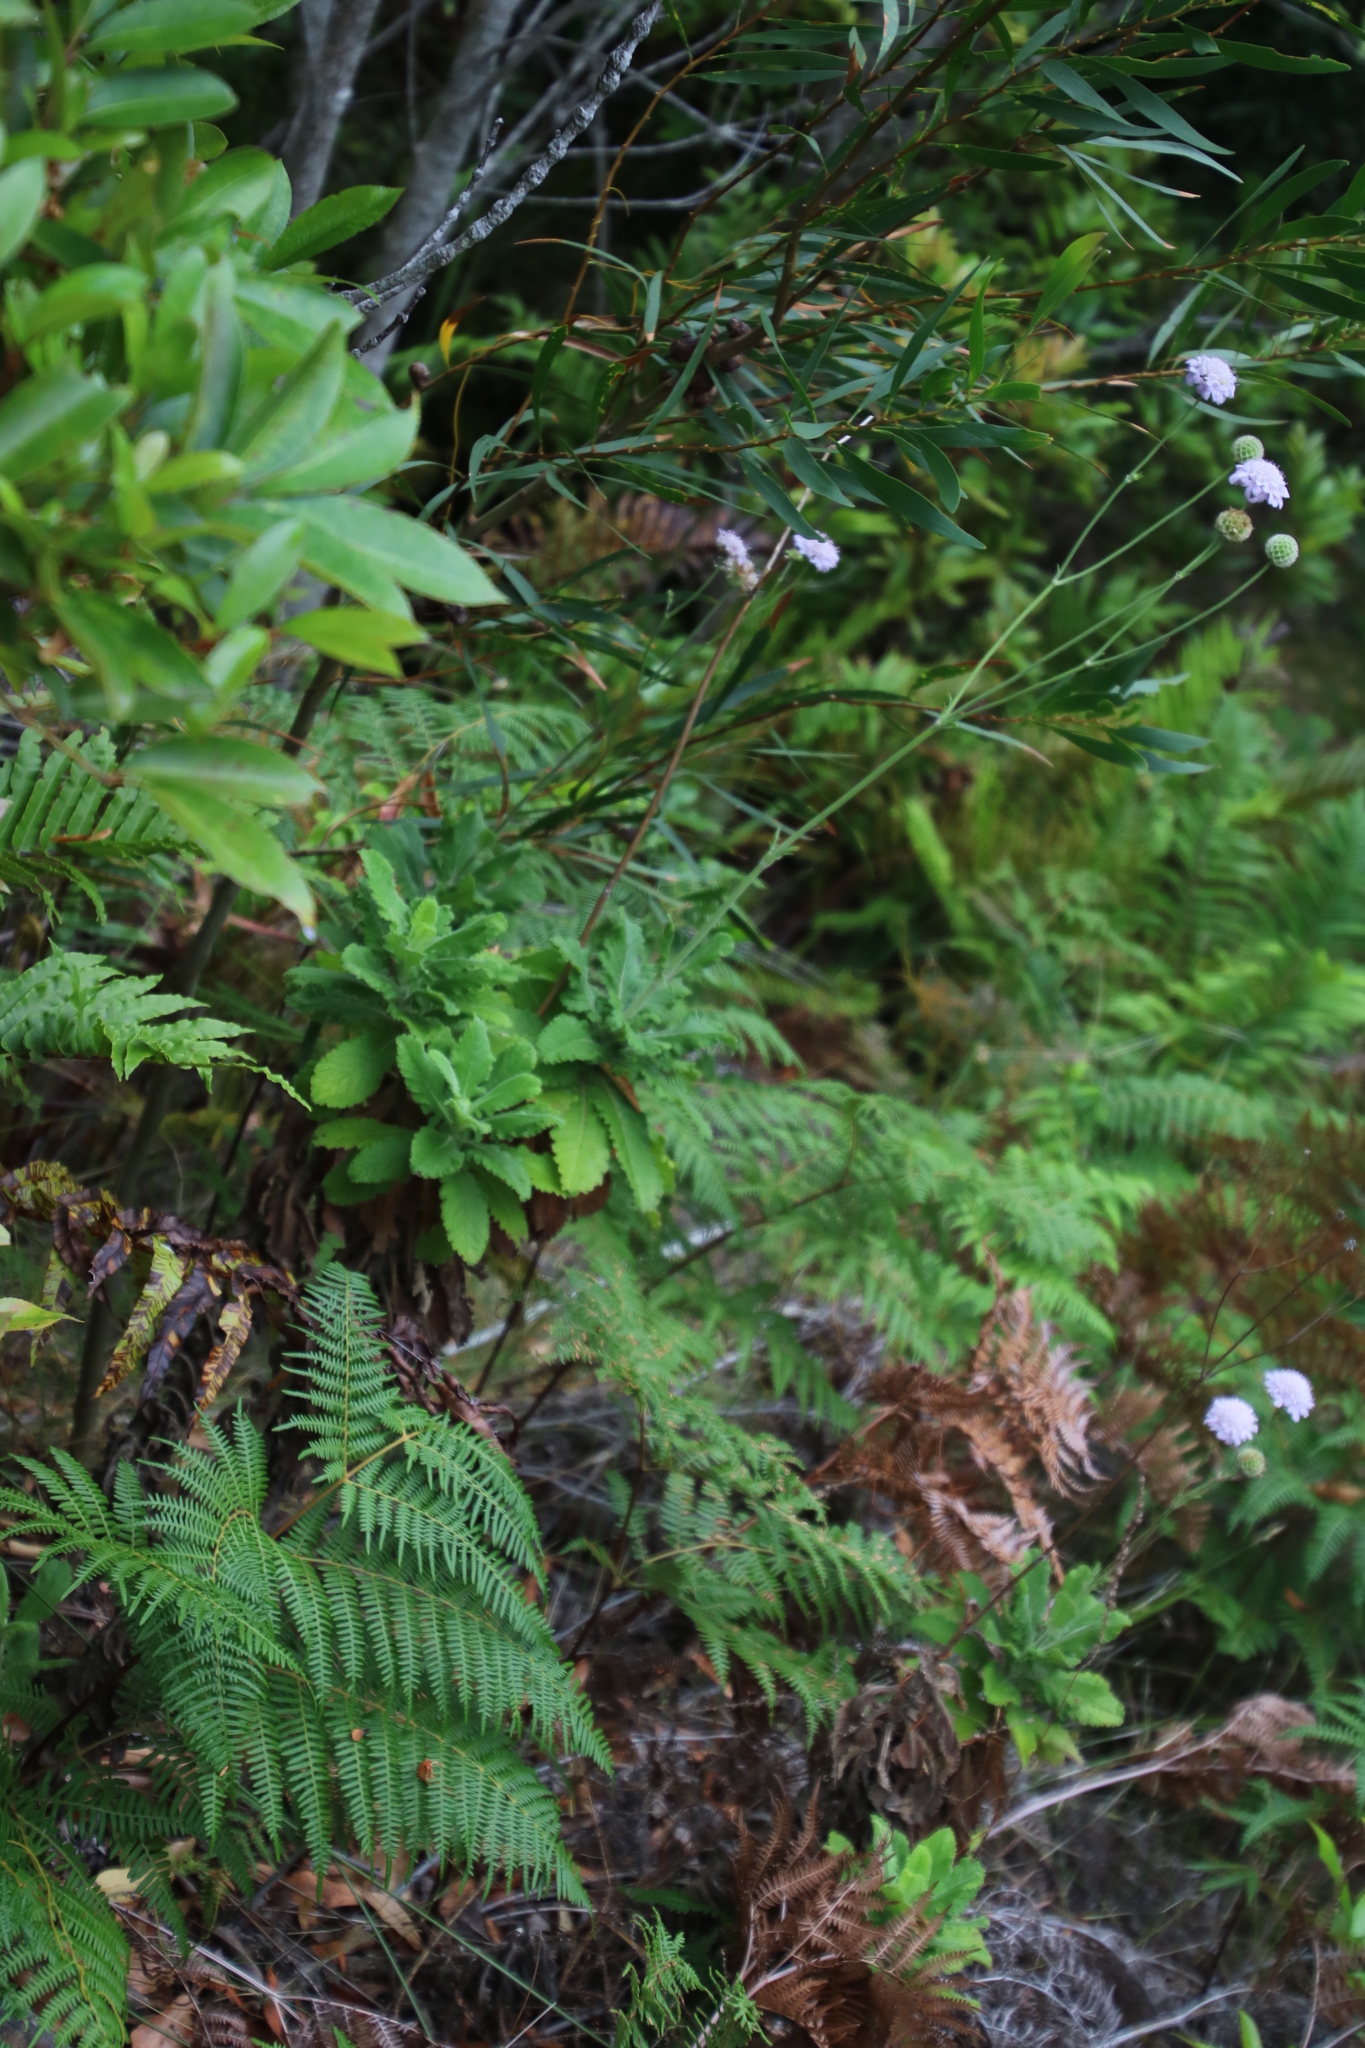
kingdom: Plantae
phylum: Tracheophyta
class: Magnoliopsida
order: Dipsacales
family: Caprifoliaceae
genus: Scabiosa
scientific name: Scabiosa africana
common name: Cape scabious
